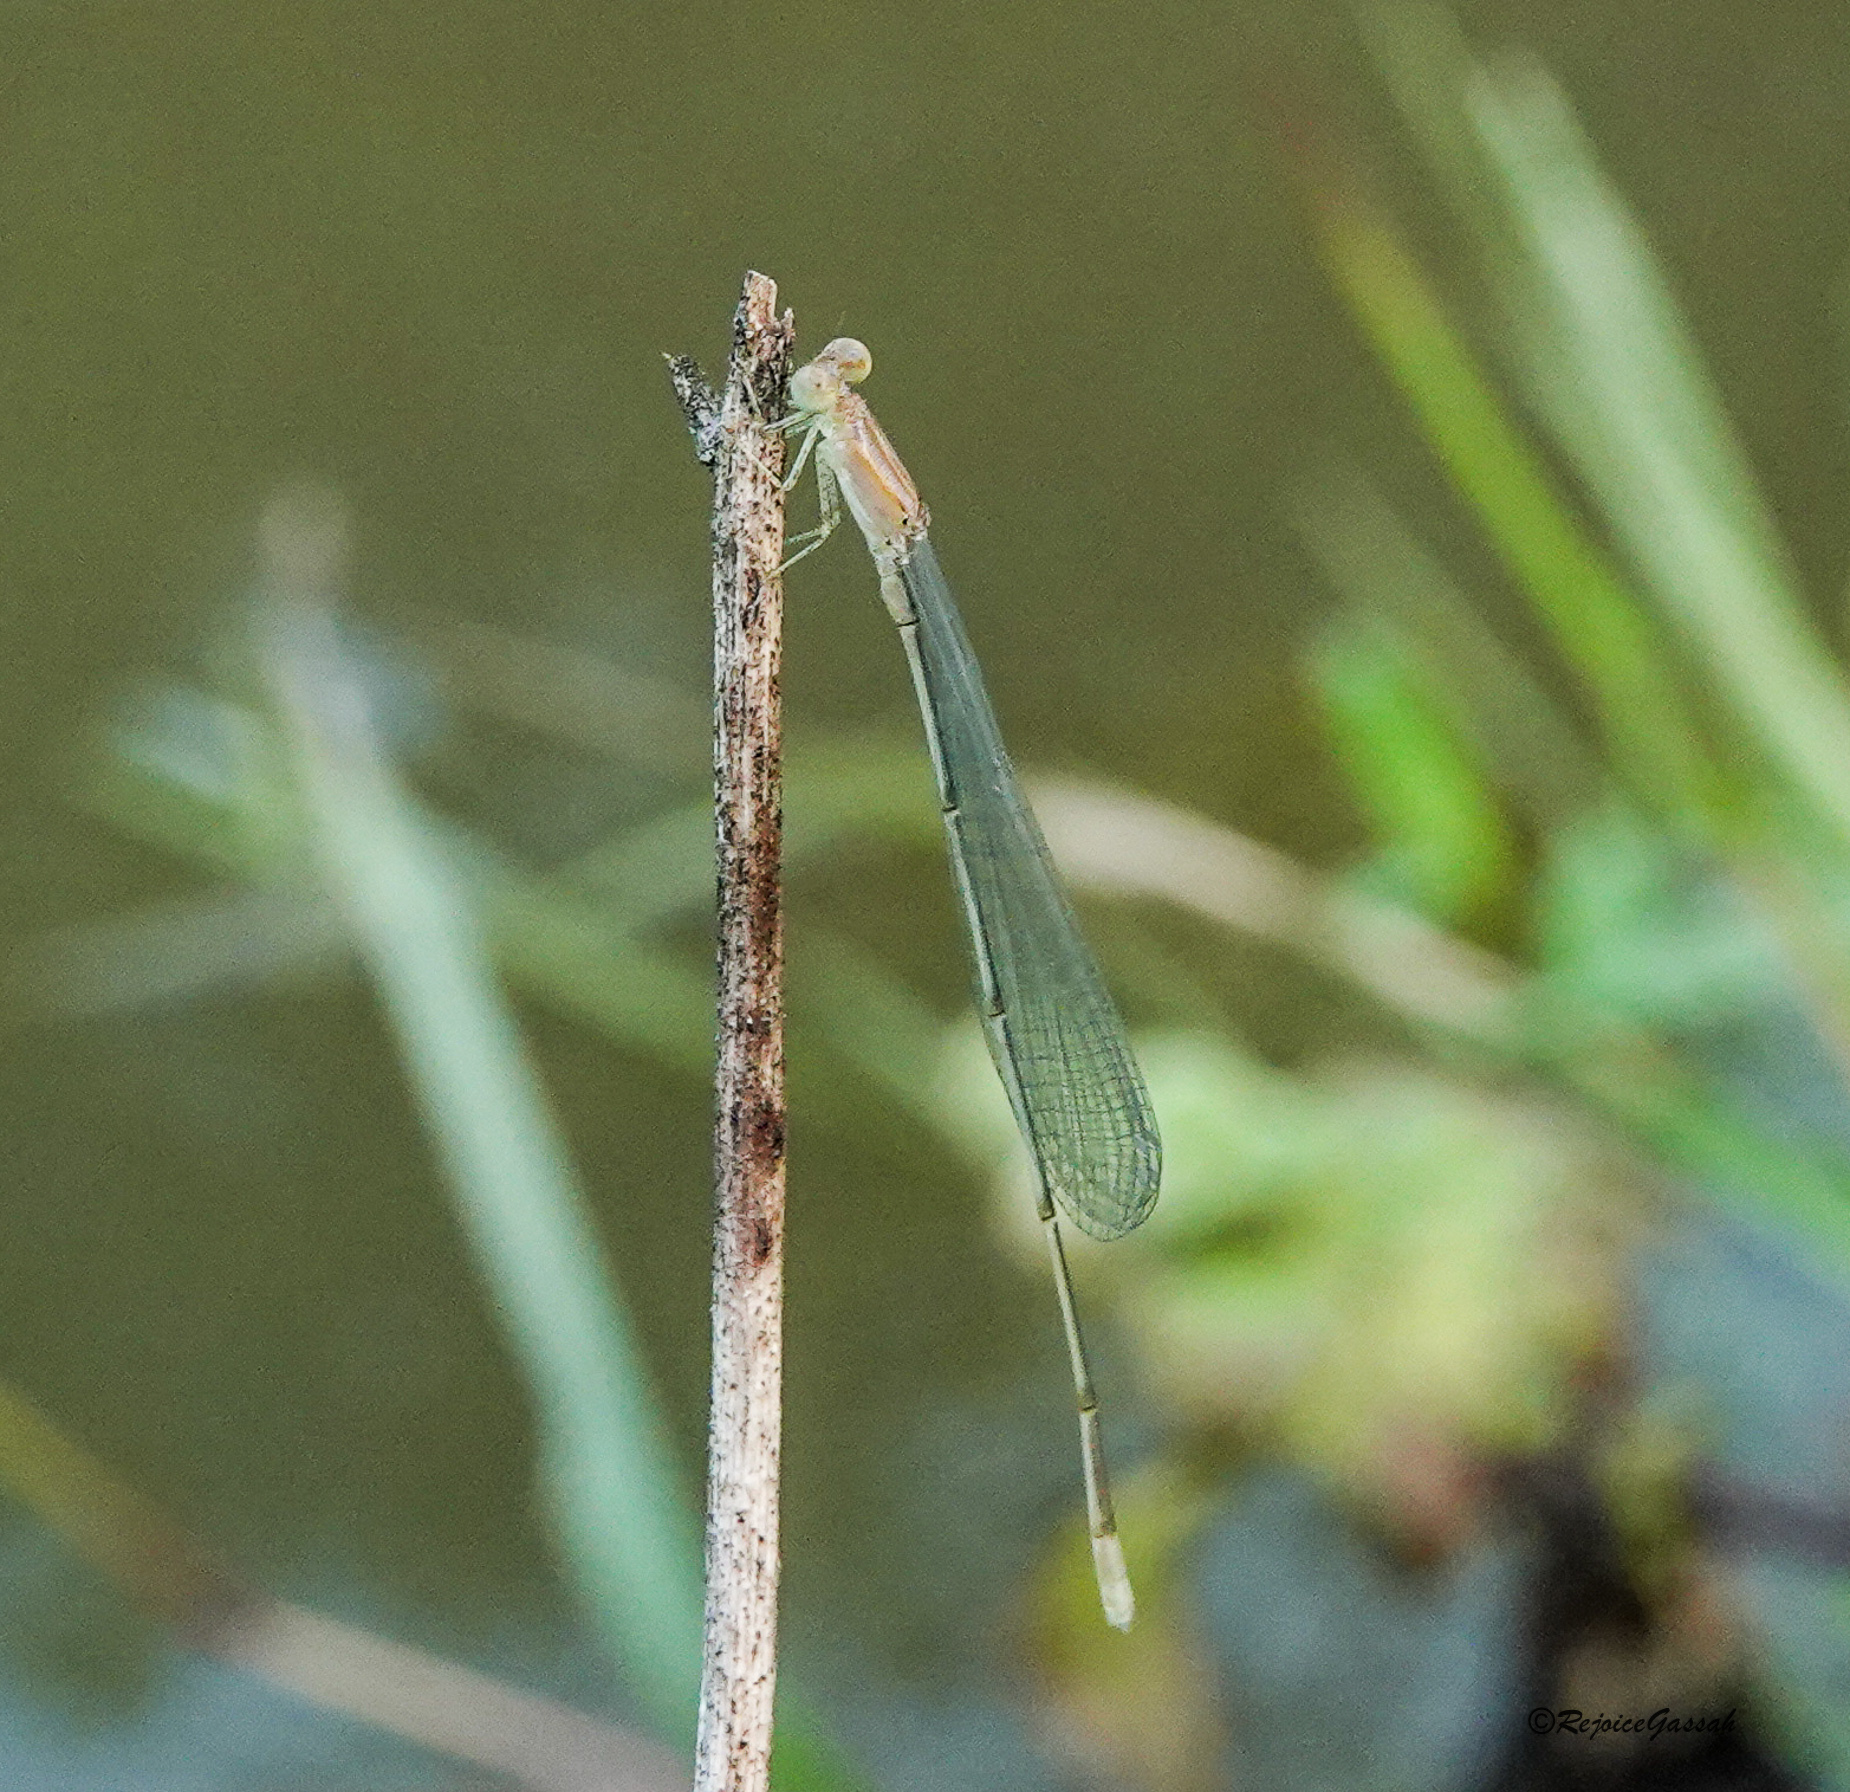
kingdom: Animalia
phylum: Arthropoda
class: Insecta
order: Odonata
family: Coenagrionidae
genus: Aciagrion
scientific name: Aciagrion pallidum
